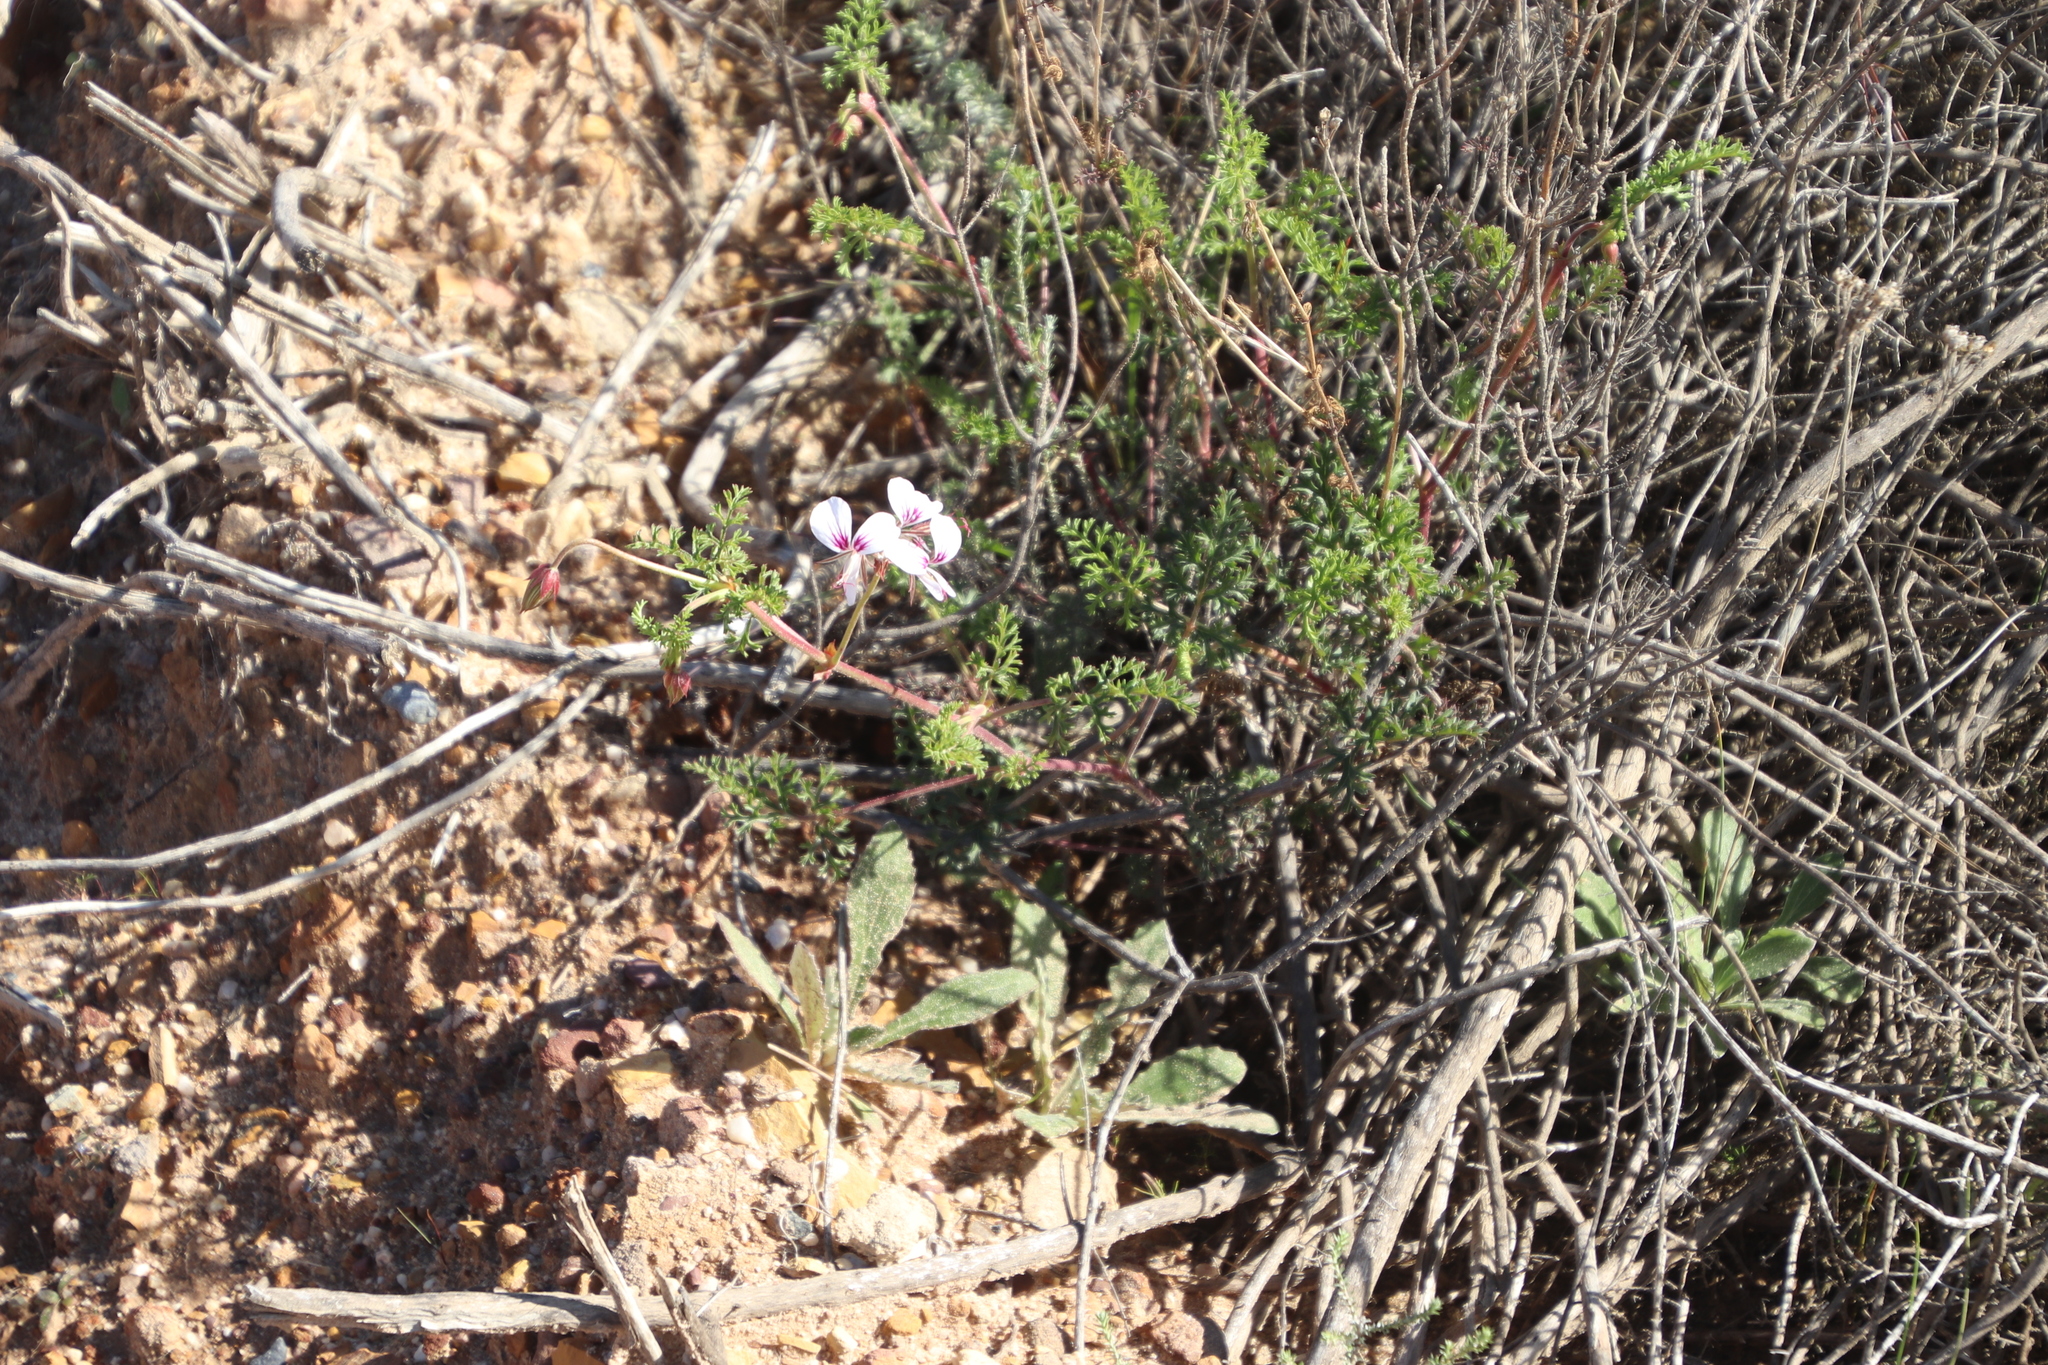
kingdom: Plantae
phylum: Tracheophyta
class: Magnoliopsida
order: Geraniales
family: Geraniaceae
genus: Pelargonium
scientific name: Pelargonium myrrhifolium
